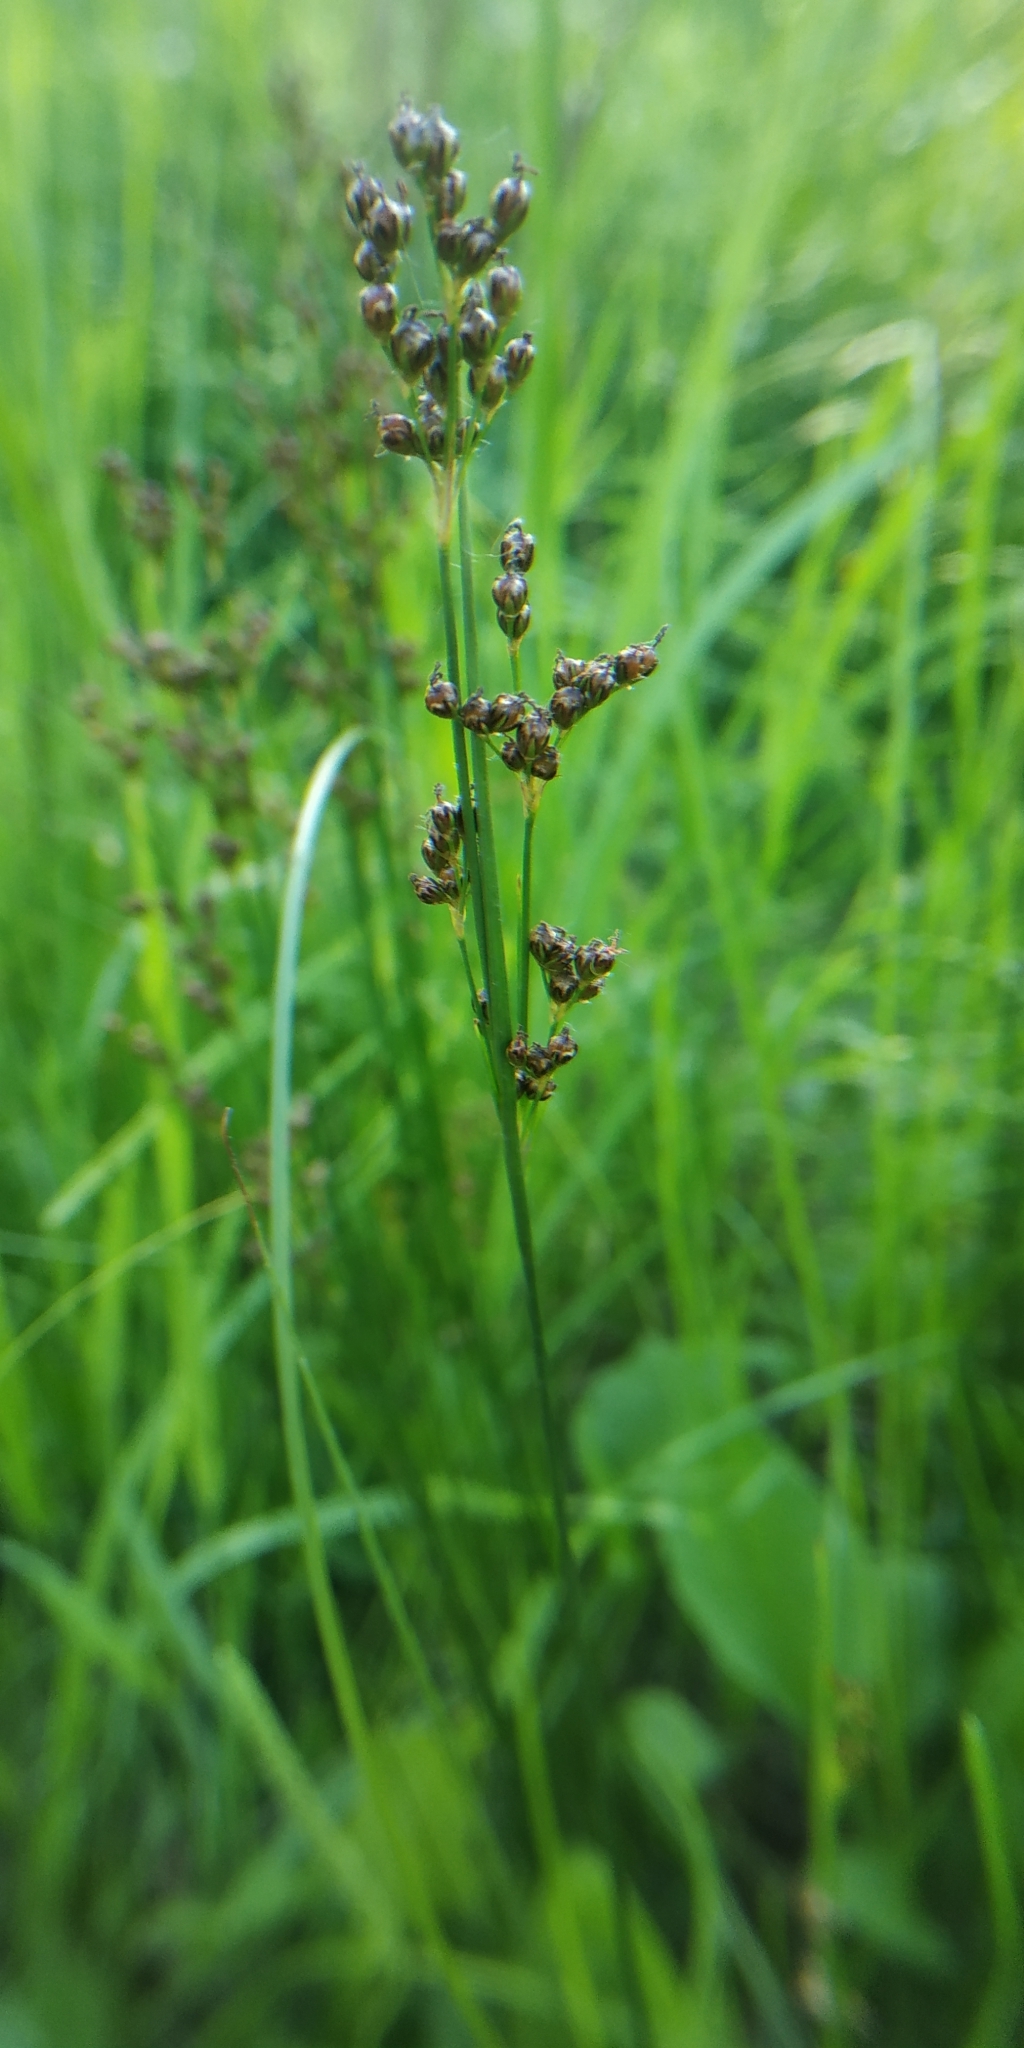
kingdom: Plantae
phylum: Tracheophyta
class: Liliopsida
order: Poales
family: Juncaceae
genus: Juncus
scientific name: Juncus compressus
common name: Round-fruited rush
